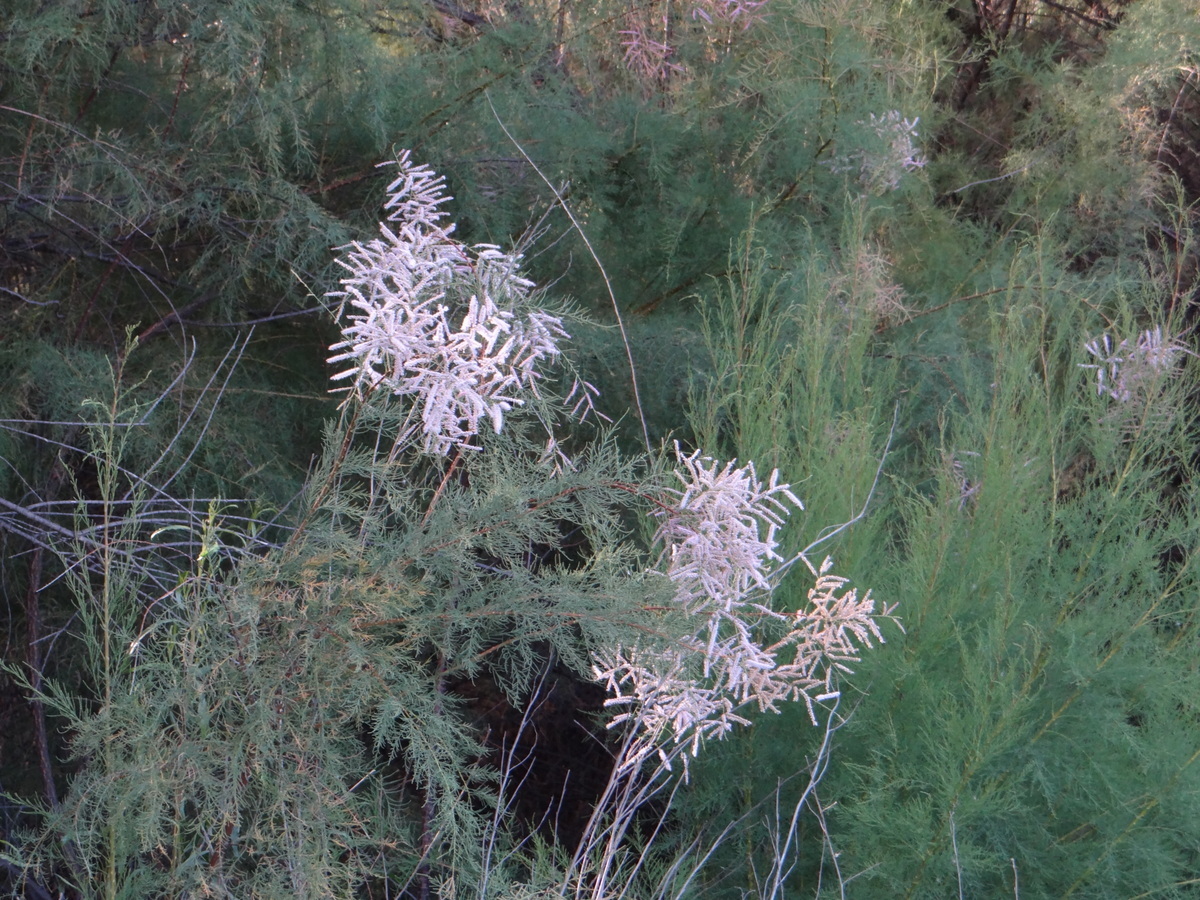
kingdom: Plantae
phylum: Tracheophyta
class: Magnoliopsida
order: Caryophyllales
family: Tamaricaceae
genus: Tamarix
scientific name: Tamarix gallica
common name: Tamarisk
